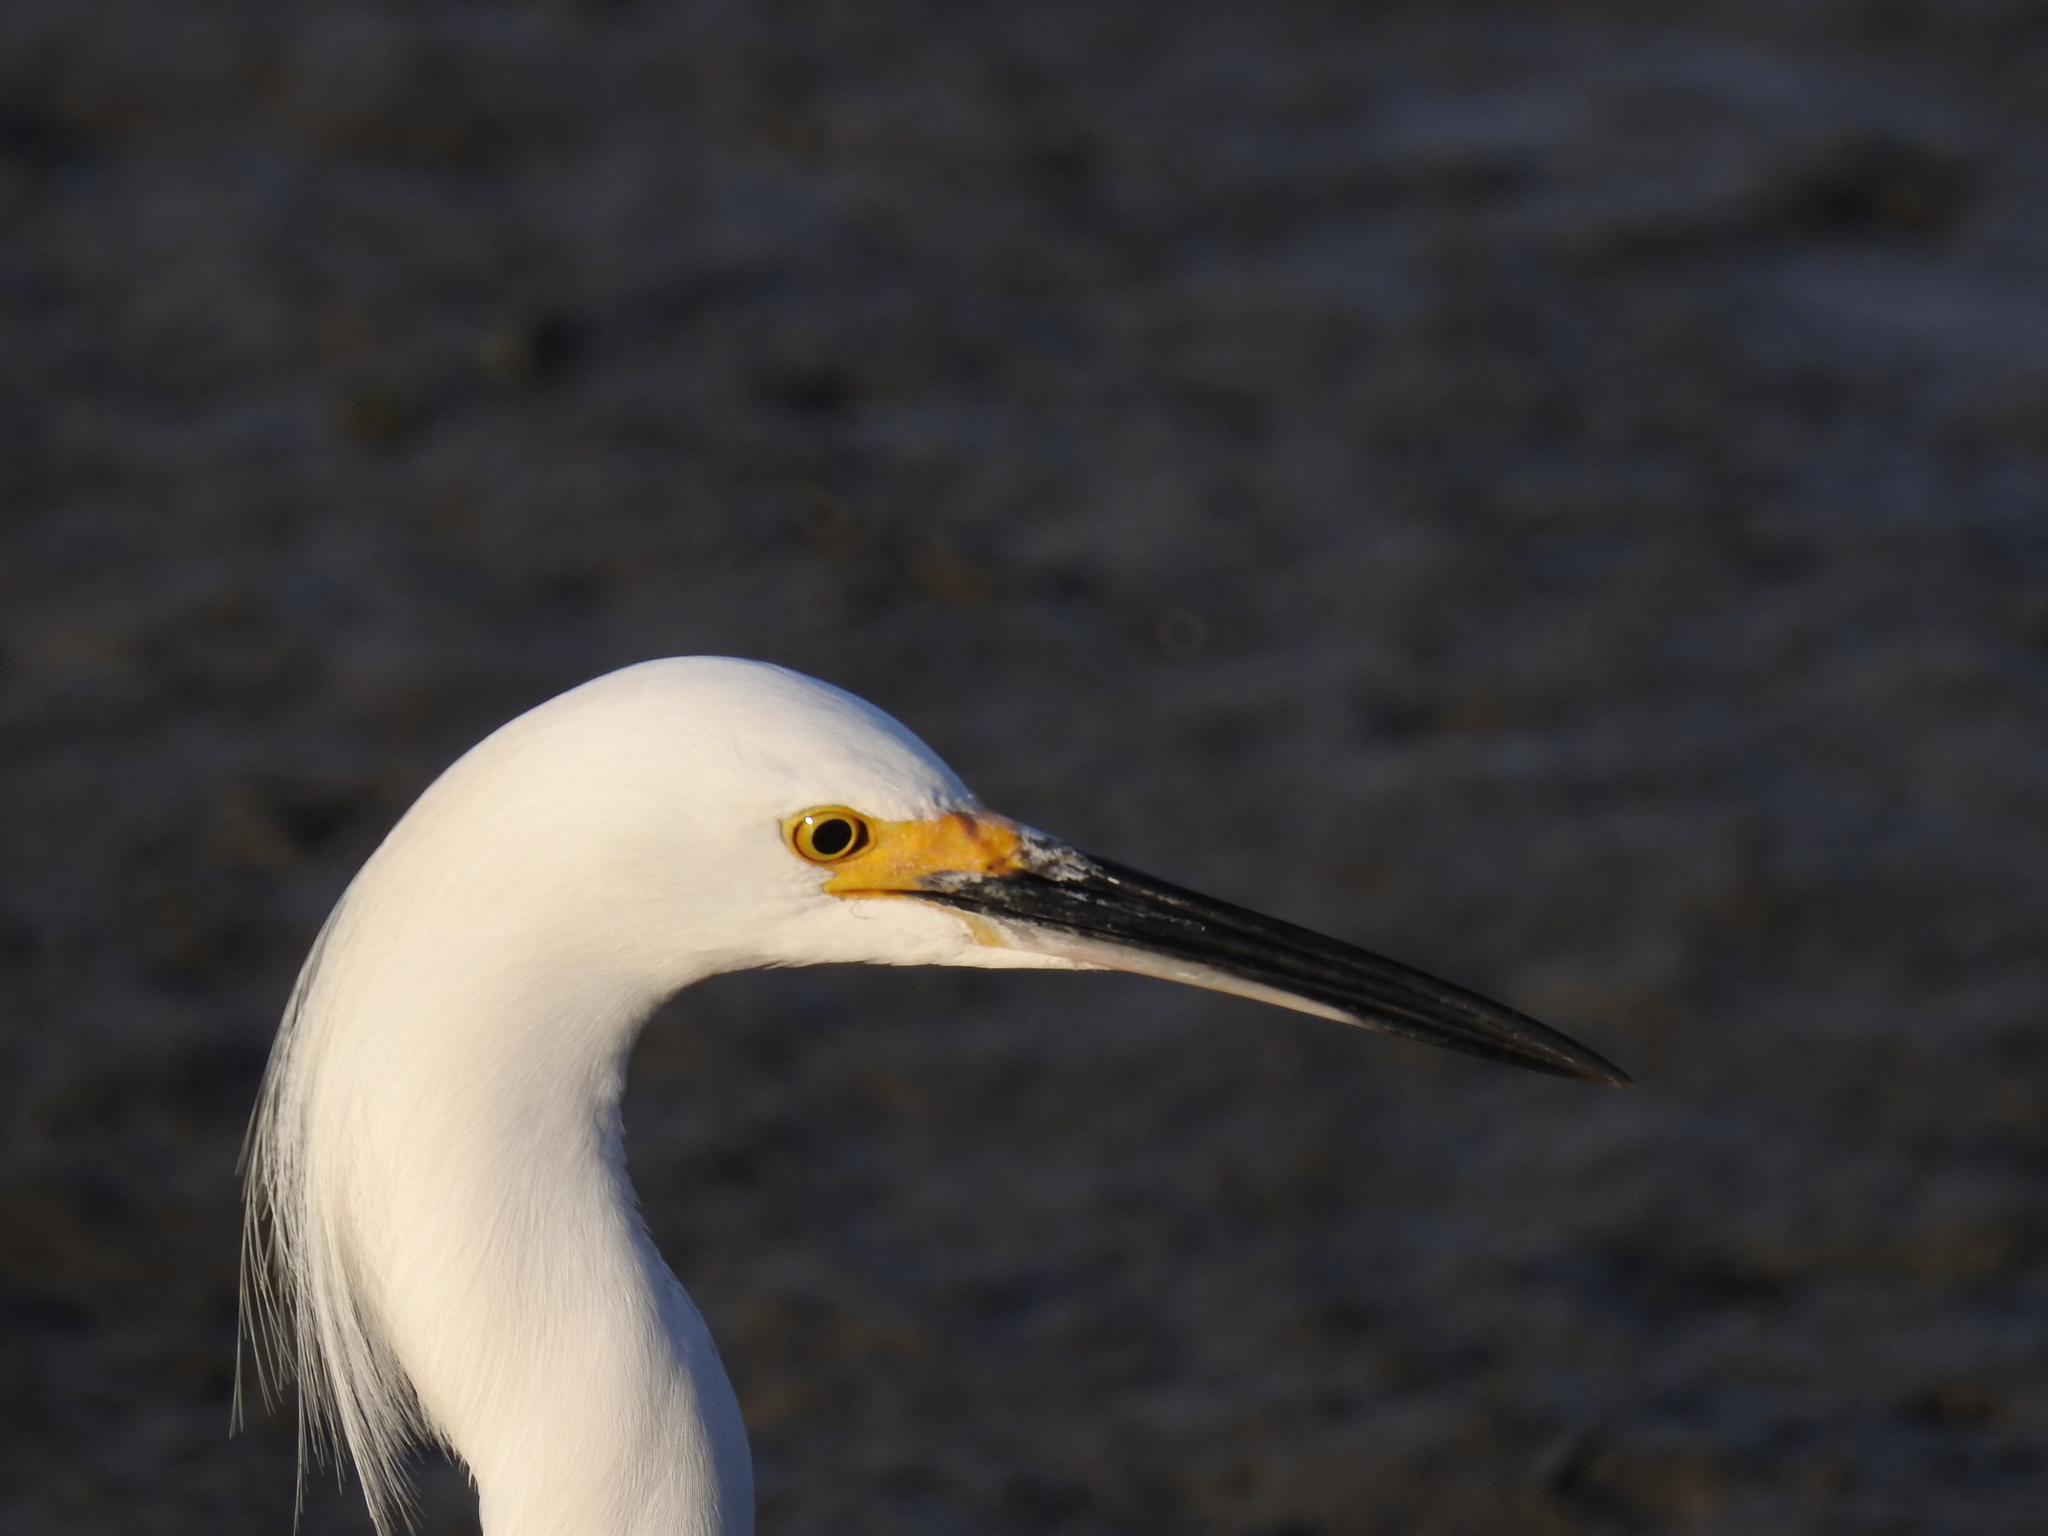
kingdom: Animalia
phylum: Chordata
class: Aves
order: Pelecaniformes
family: Ardeidae
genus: Egretta
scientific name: Egretta thula
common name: Snowy egret
